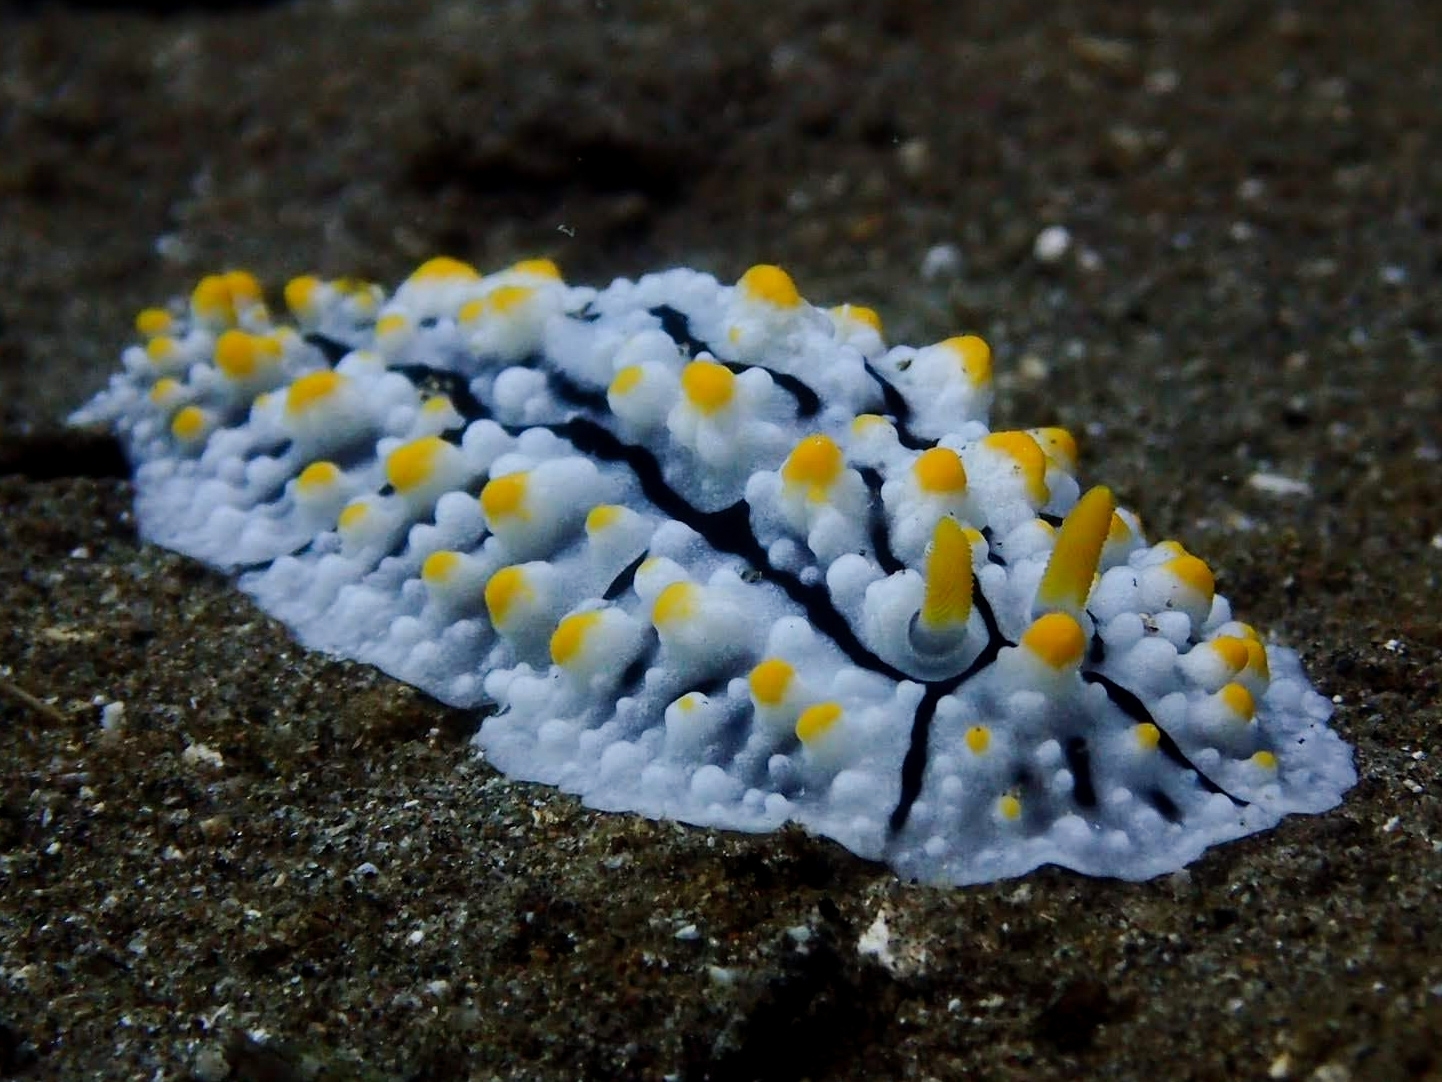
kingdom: Animalia
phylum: Mollusca
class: Gastropoda
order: Nudibranchia
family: Phyllidiidae
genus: Phyllidia
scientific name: Phyllidia elegans
